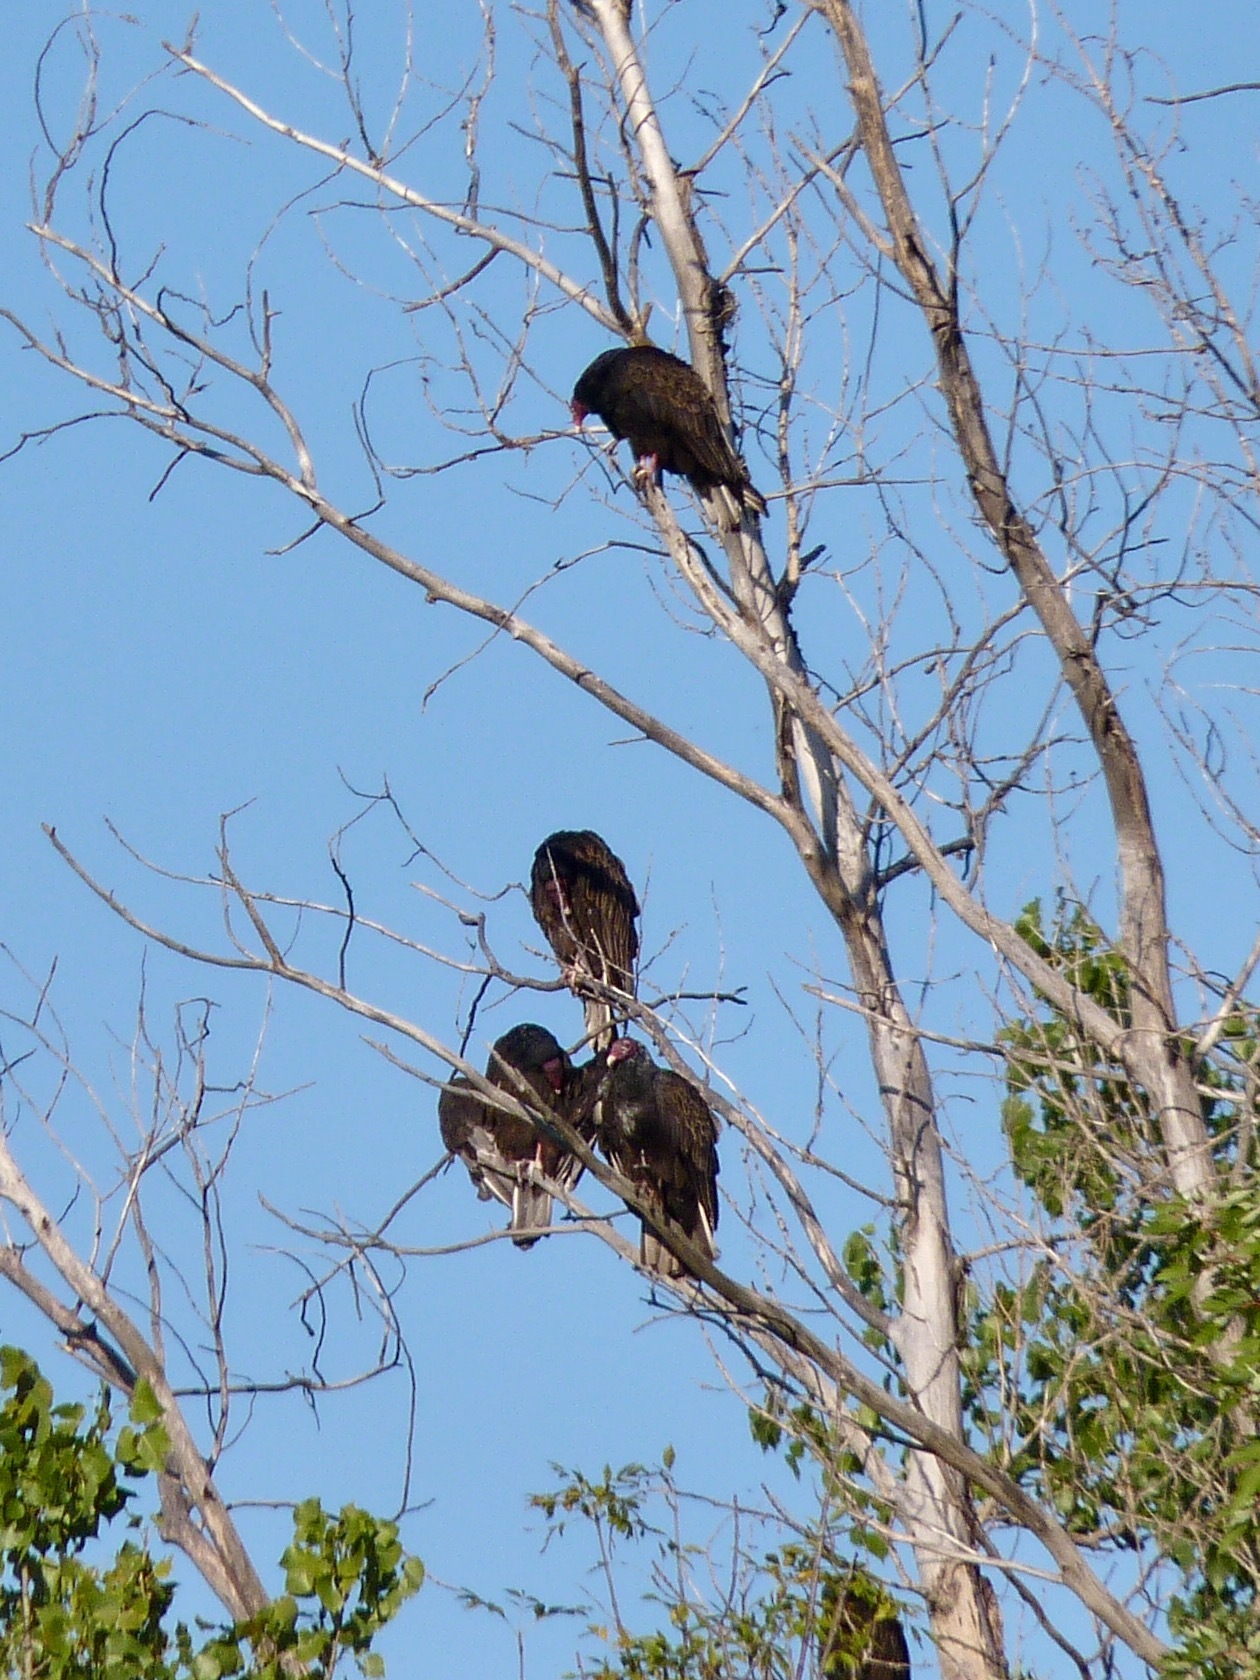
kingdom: Animalia
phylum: Chordata
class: Aves
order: Accipitriformes
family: Cathartidae
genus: Cathartes
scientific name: Cathartes aura
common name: Turkey vulture
